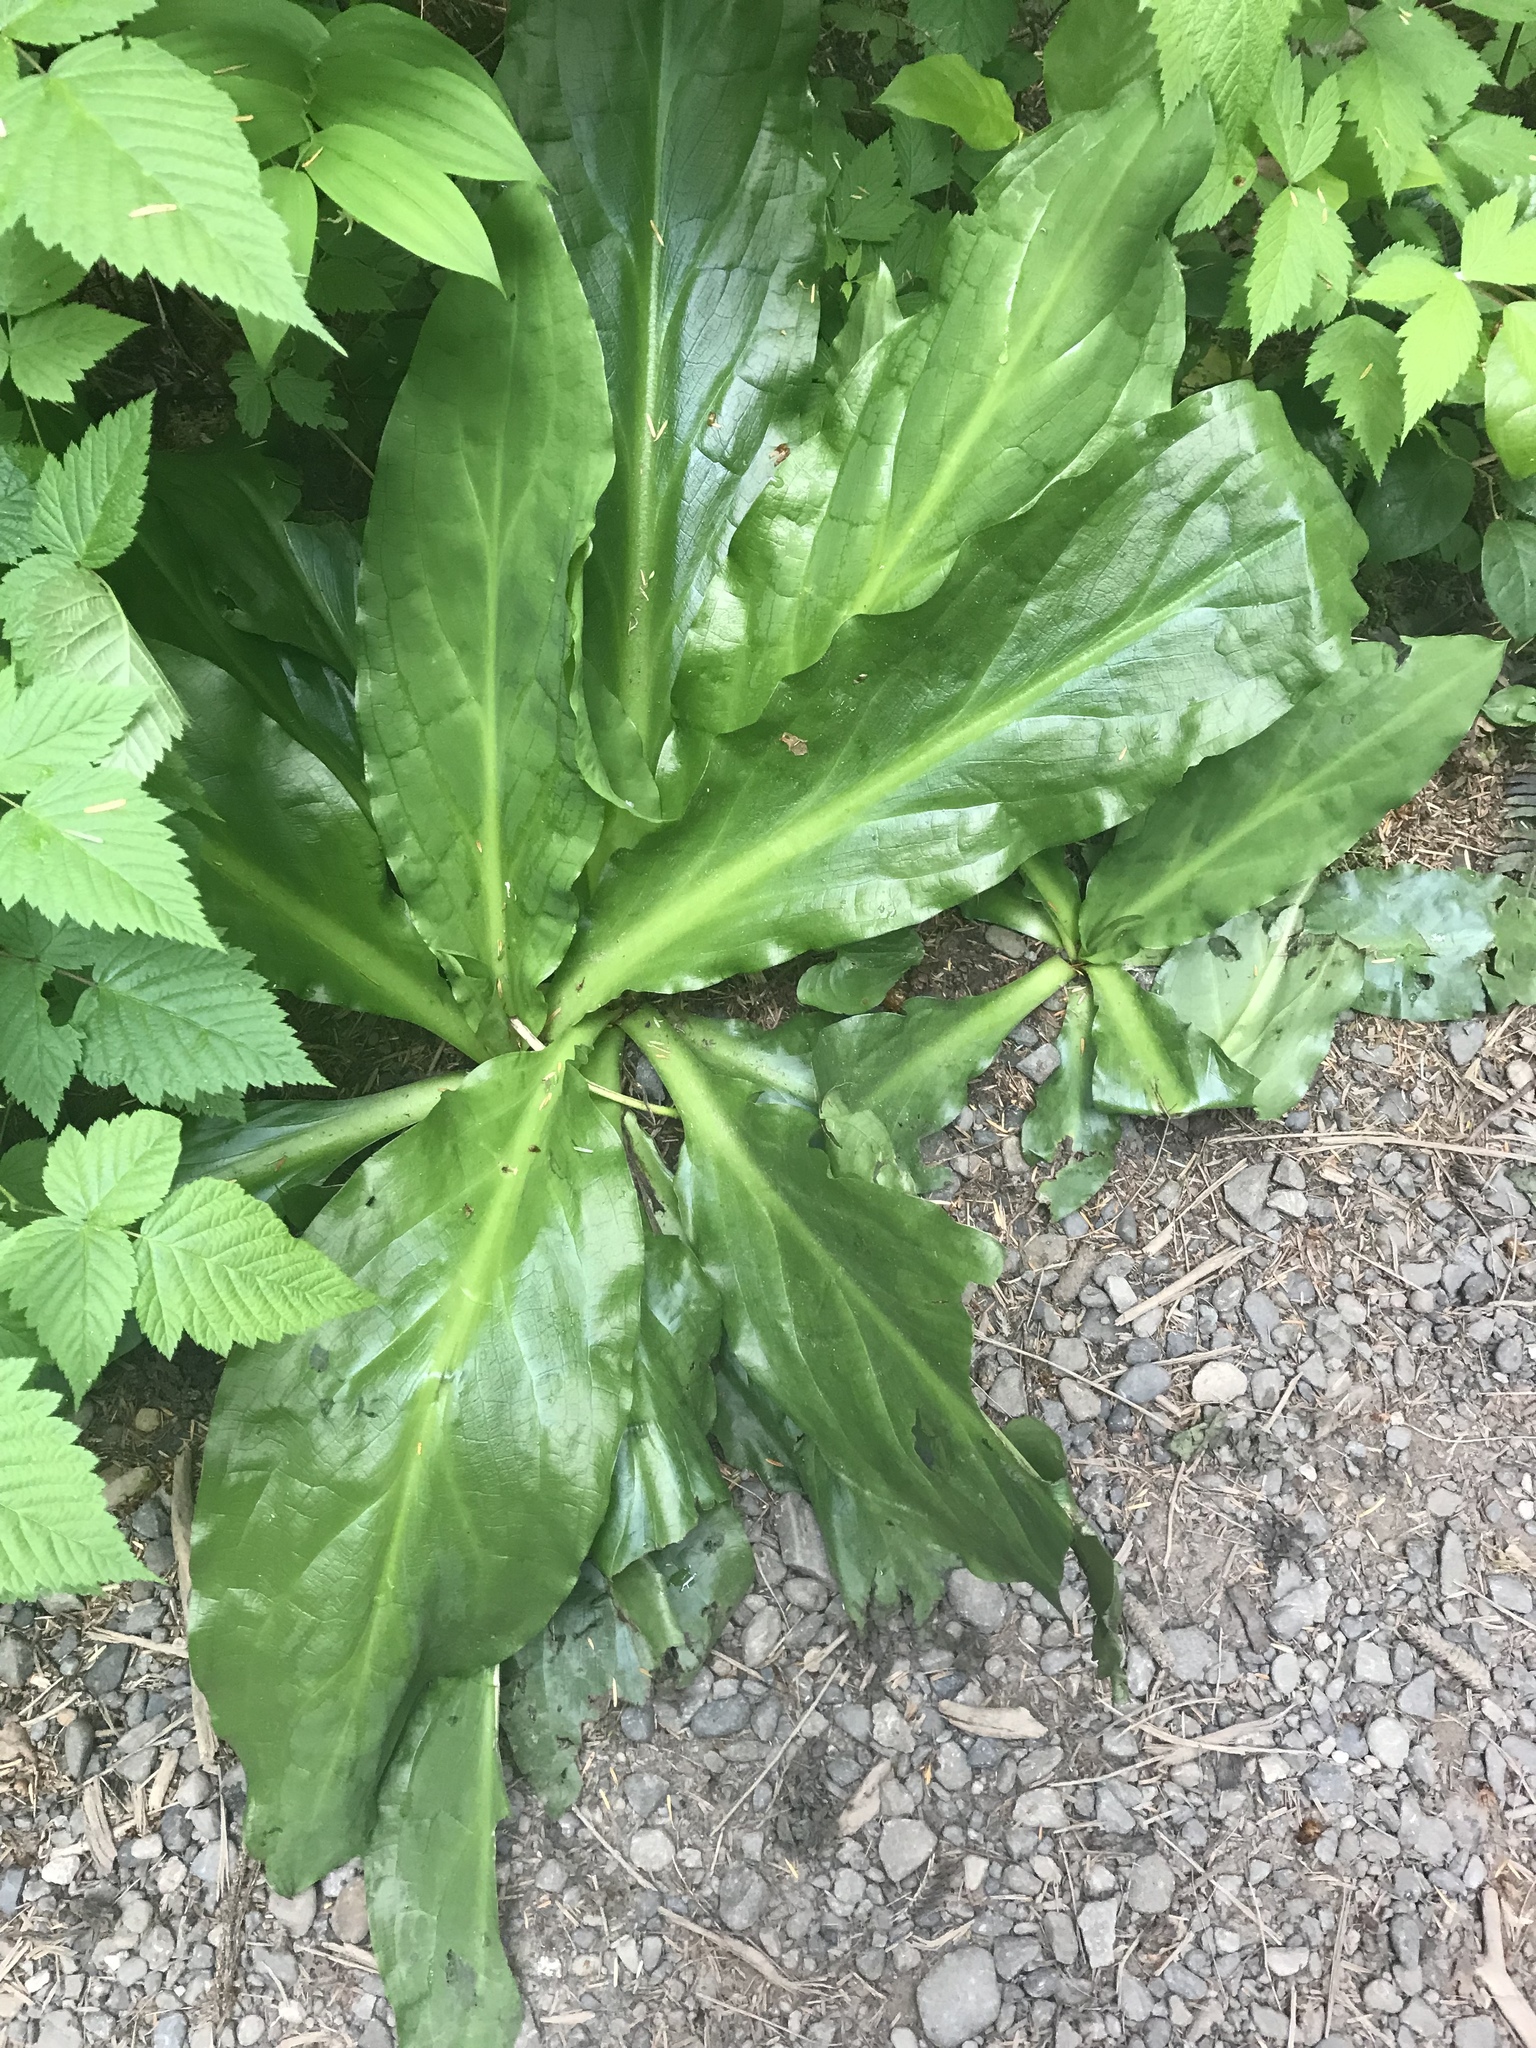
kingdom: Plantae
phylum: Tracheophyta
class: Liliopsida
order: Alismatales
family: Araceae
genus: Lysichiton
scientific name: Lysichiton americanus
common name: American skunk cabbage
